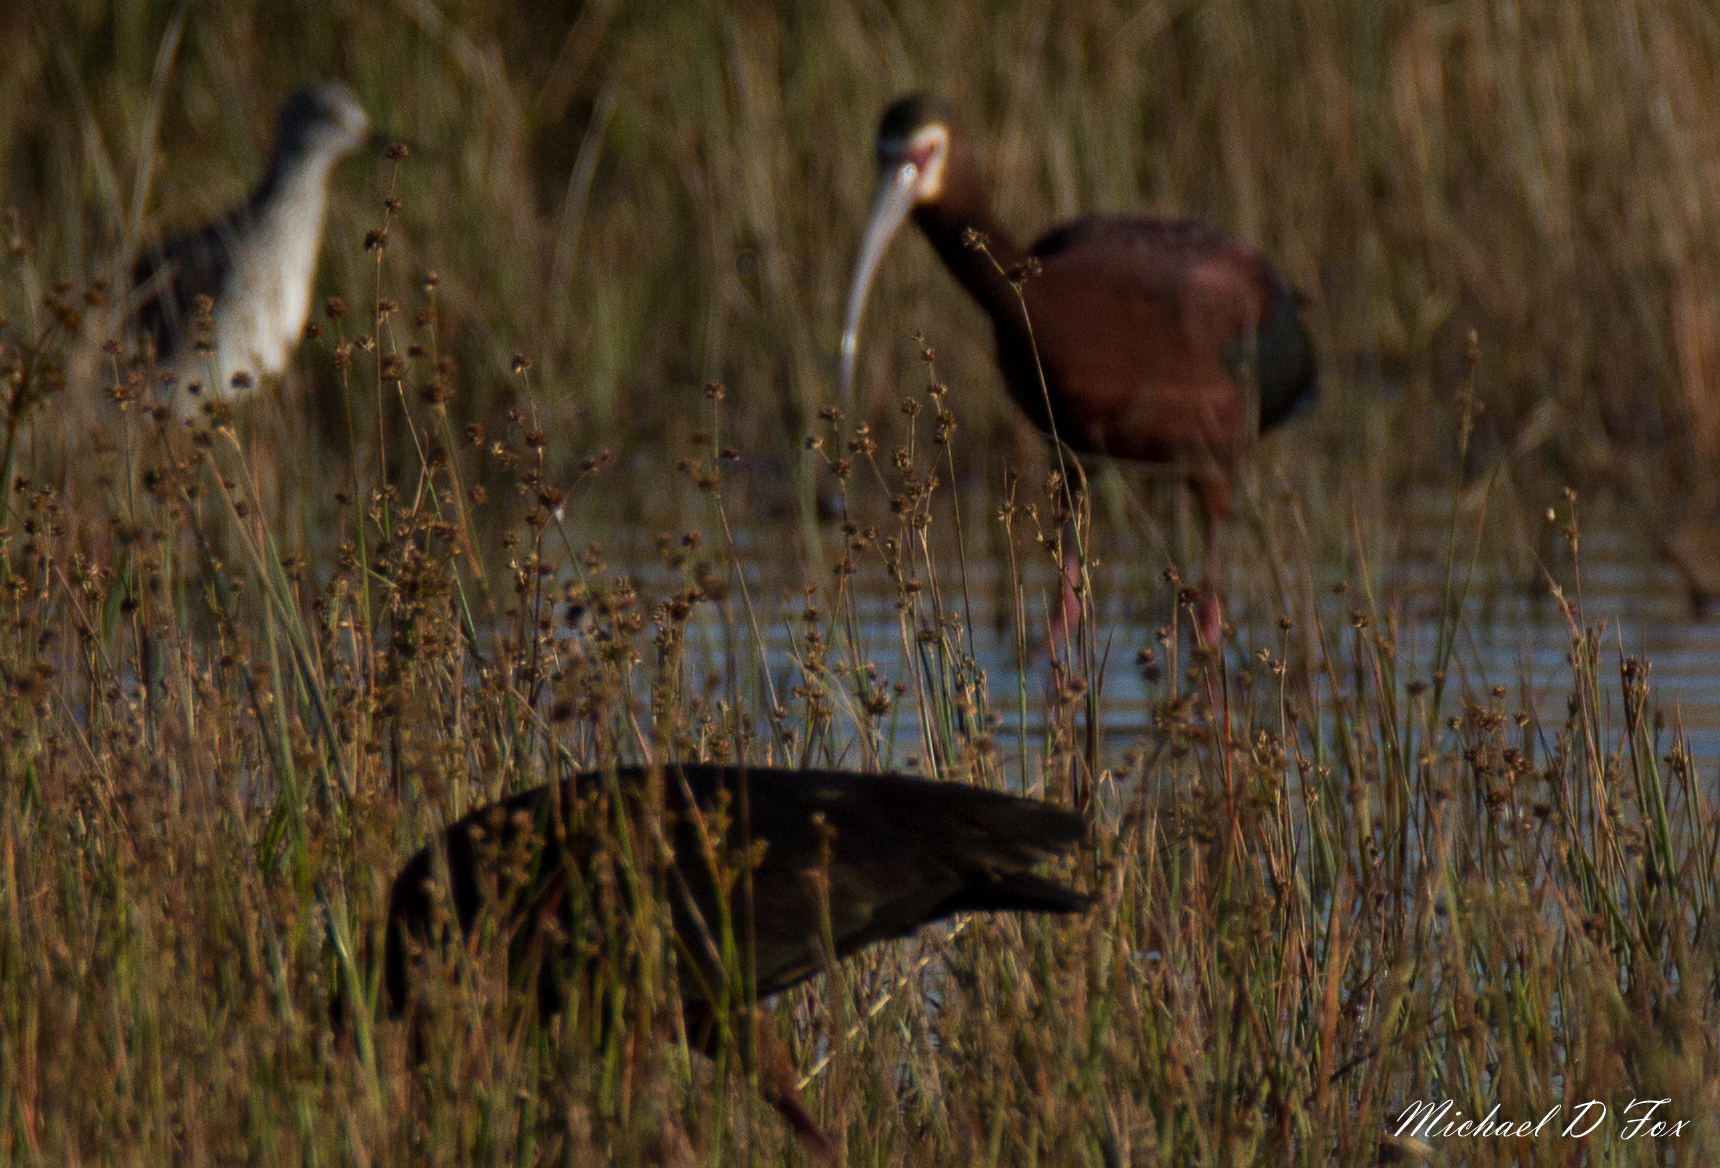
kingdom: Animalia
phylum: Chordata
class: Aves
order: Pelecaniformes
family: Threskiornithidae
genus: Plegadis
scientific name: Plegadis chihi
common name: White-faced ibis
